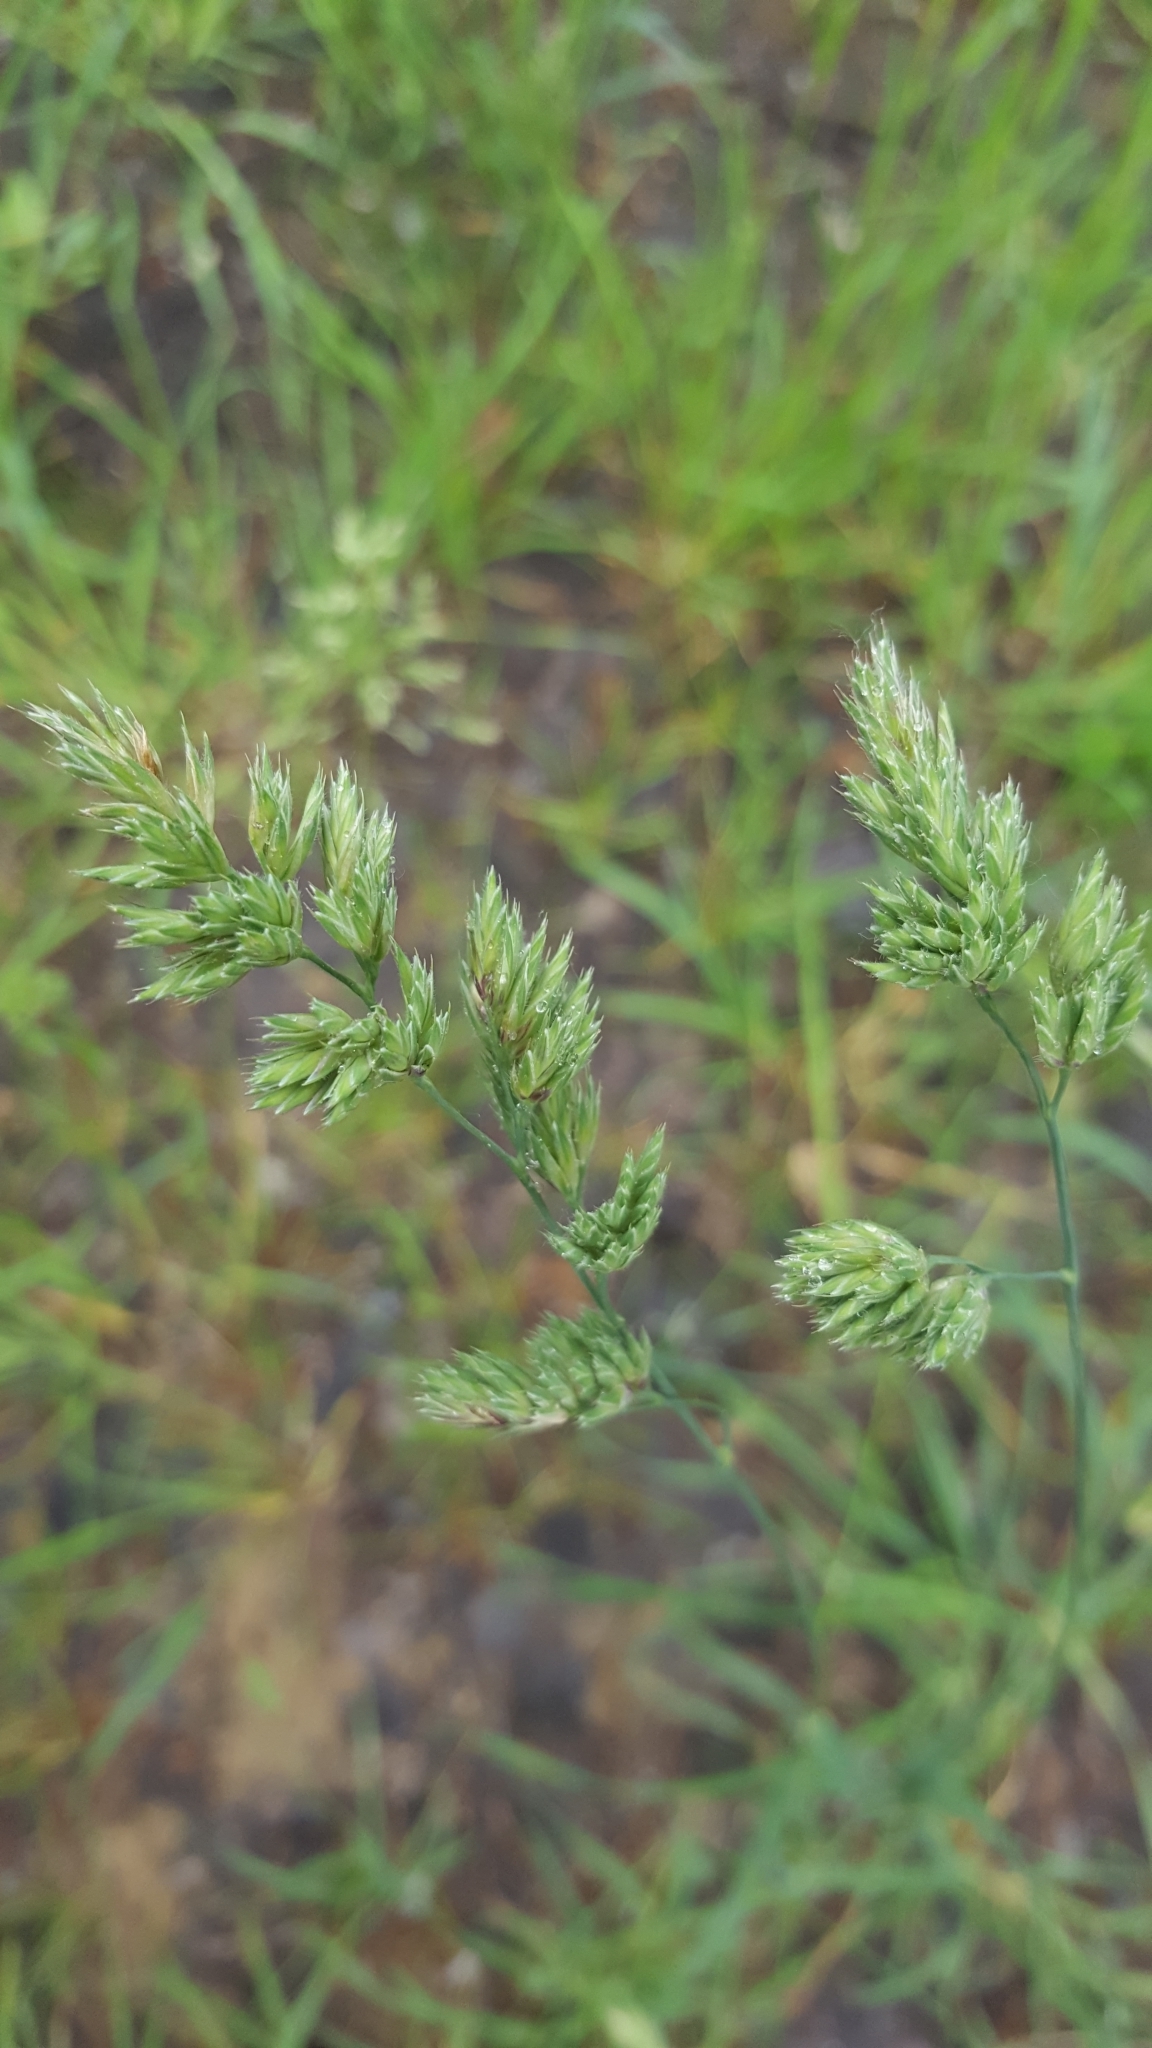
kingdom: Plantae
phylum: Tracheophyta
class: Liliopsida
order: Poales
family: Poaceae
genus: Dactylis
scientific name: Dactylis glomerata
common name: Orchardgrass
